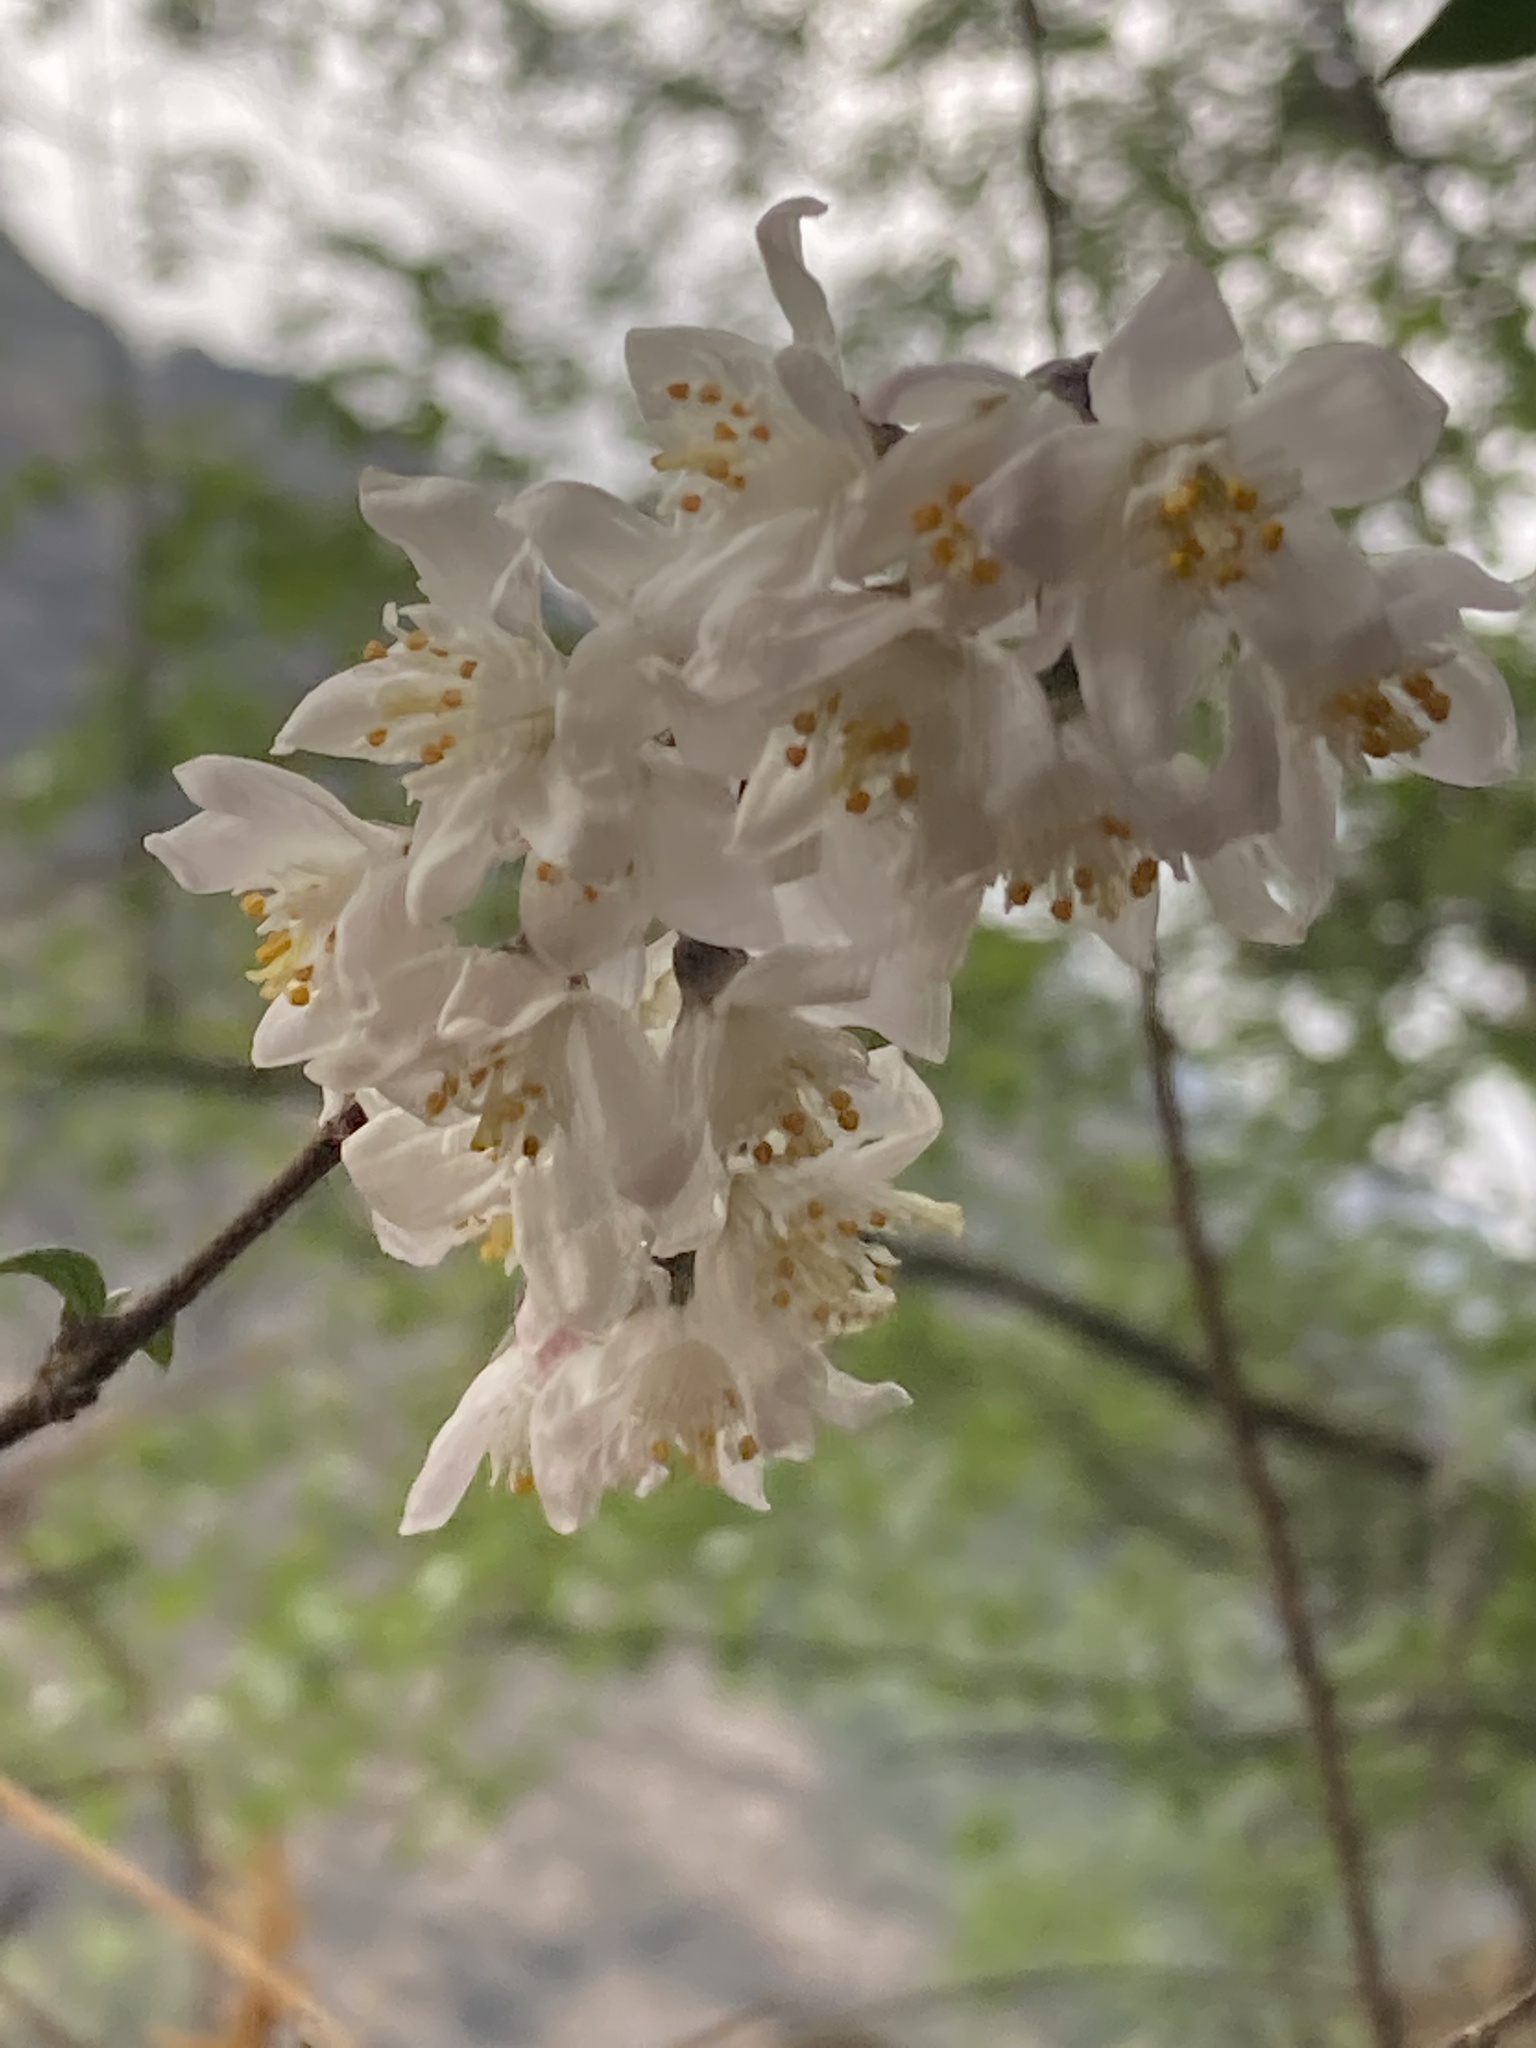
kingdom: Plantae
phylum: Tracheophyta
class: Magnoliopsida
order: Cornales
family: Hydrangeaceae
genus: Deutzia
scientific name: Deutzia staminea
